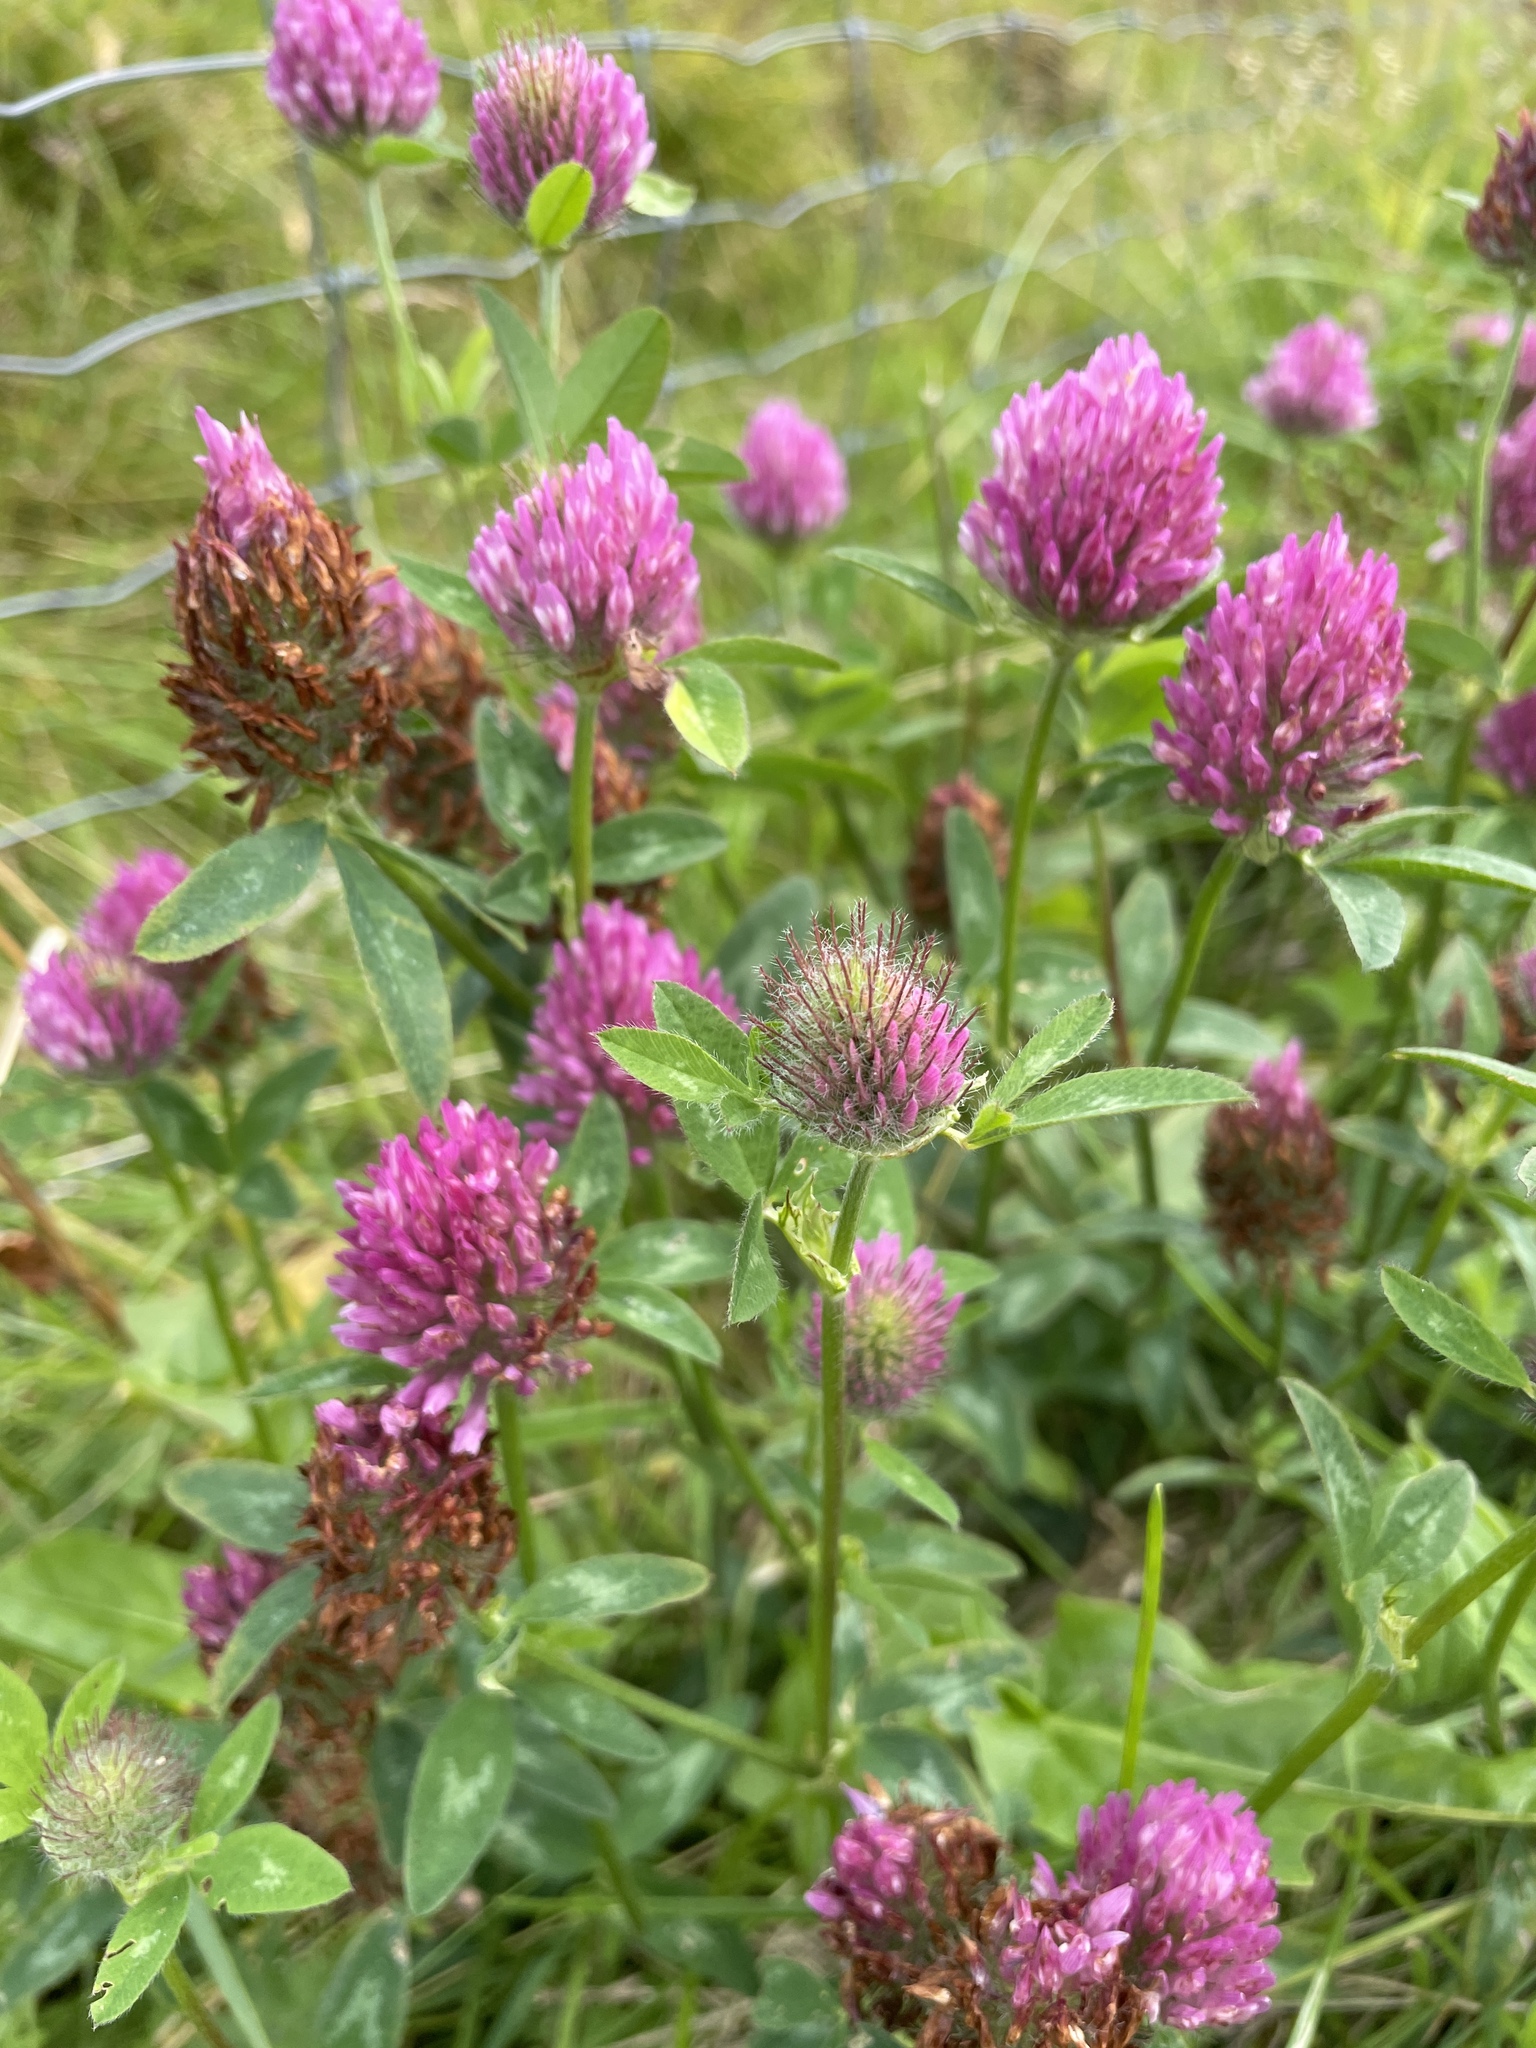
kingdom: Plantae
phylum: Tracheophyta
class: Magnoliopsida
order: Fabales
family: Fabaceae
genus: Trifolium
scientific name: Trifolium pratense
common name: Red clover
